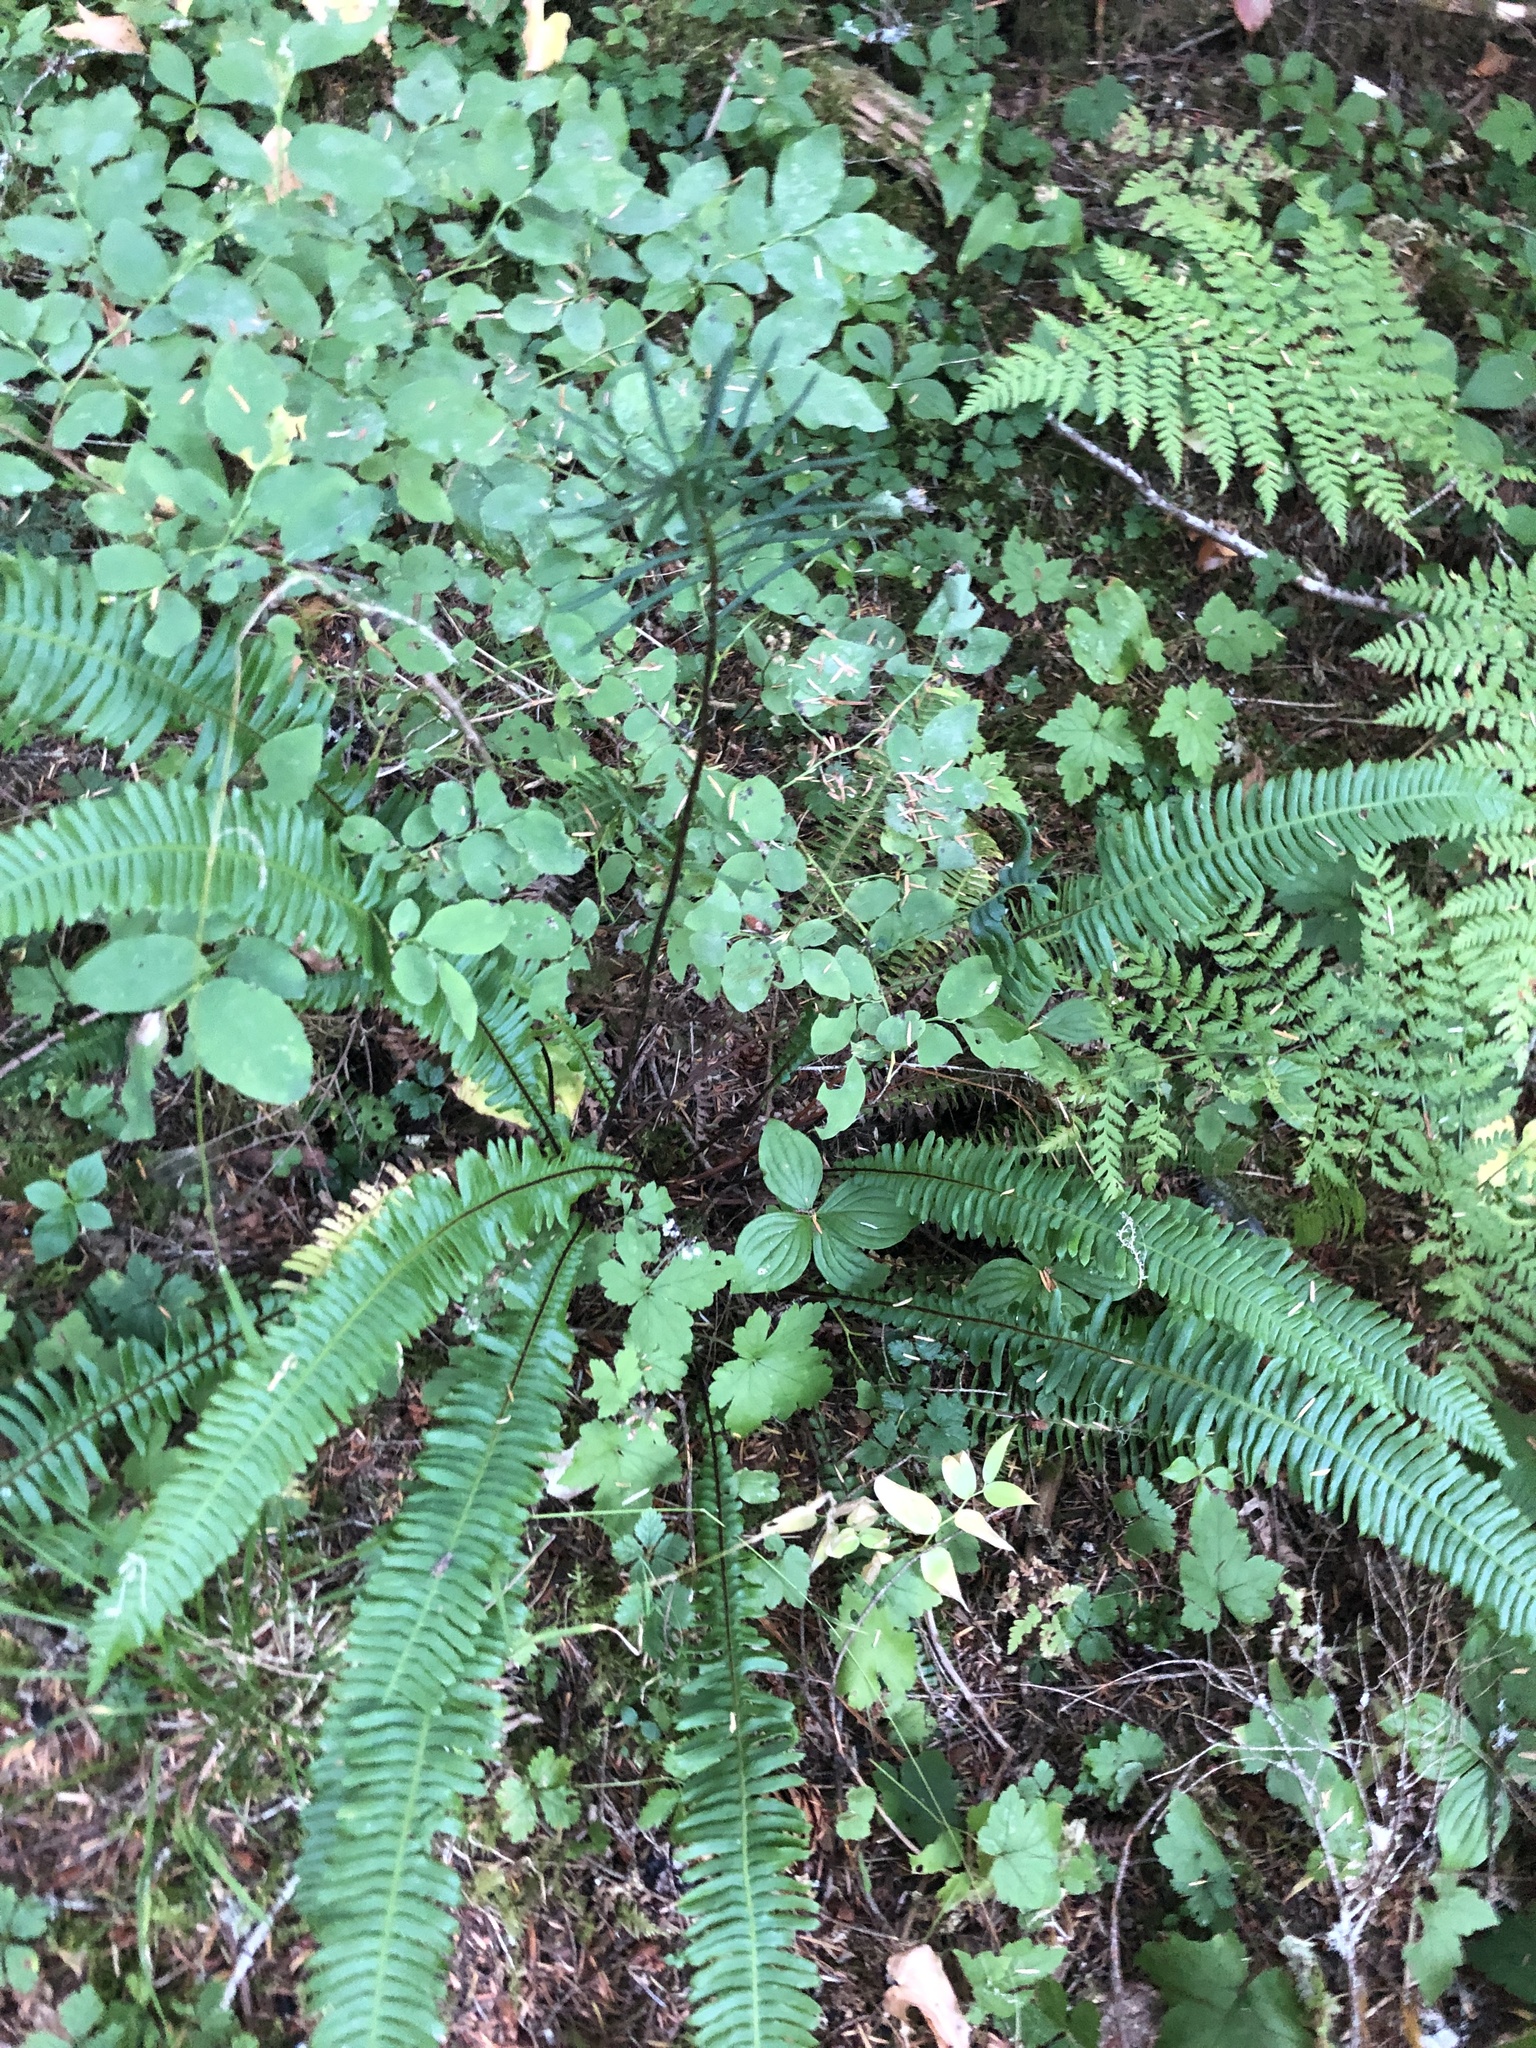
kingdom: Plantae
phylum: Tracheophyta
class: Polypodiopsida
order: Polypodiales
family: Blechnaceae
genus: Struthiopteris
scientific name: Struthiopteris spicant
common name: Deer fern
